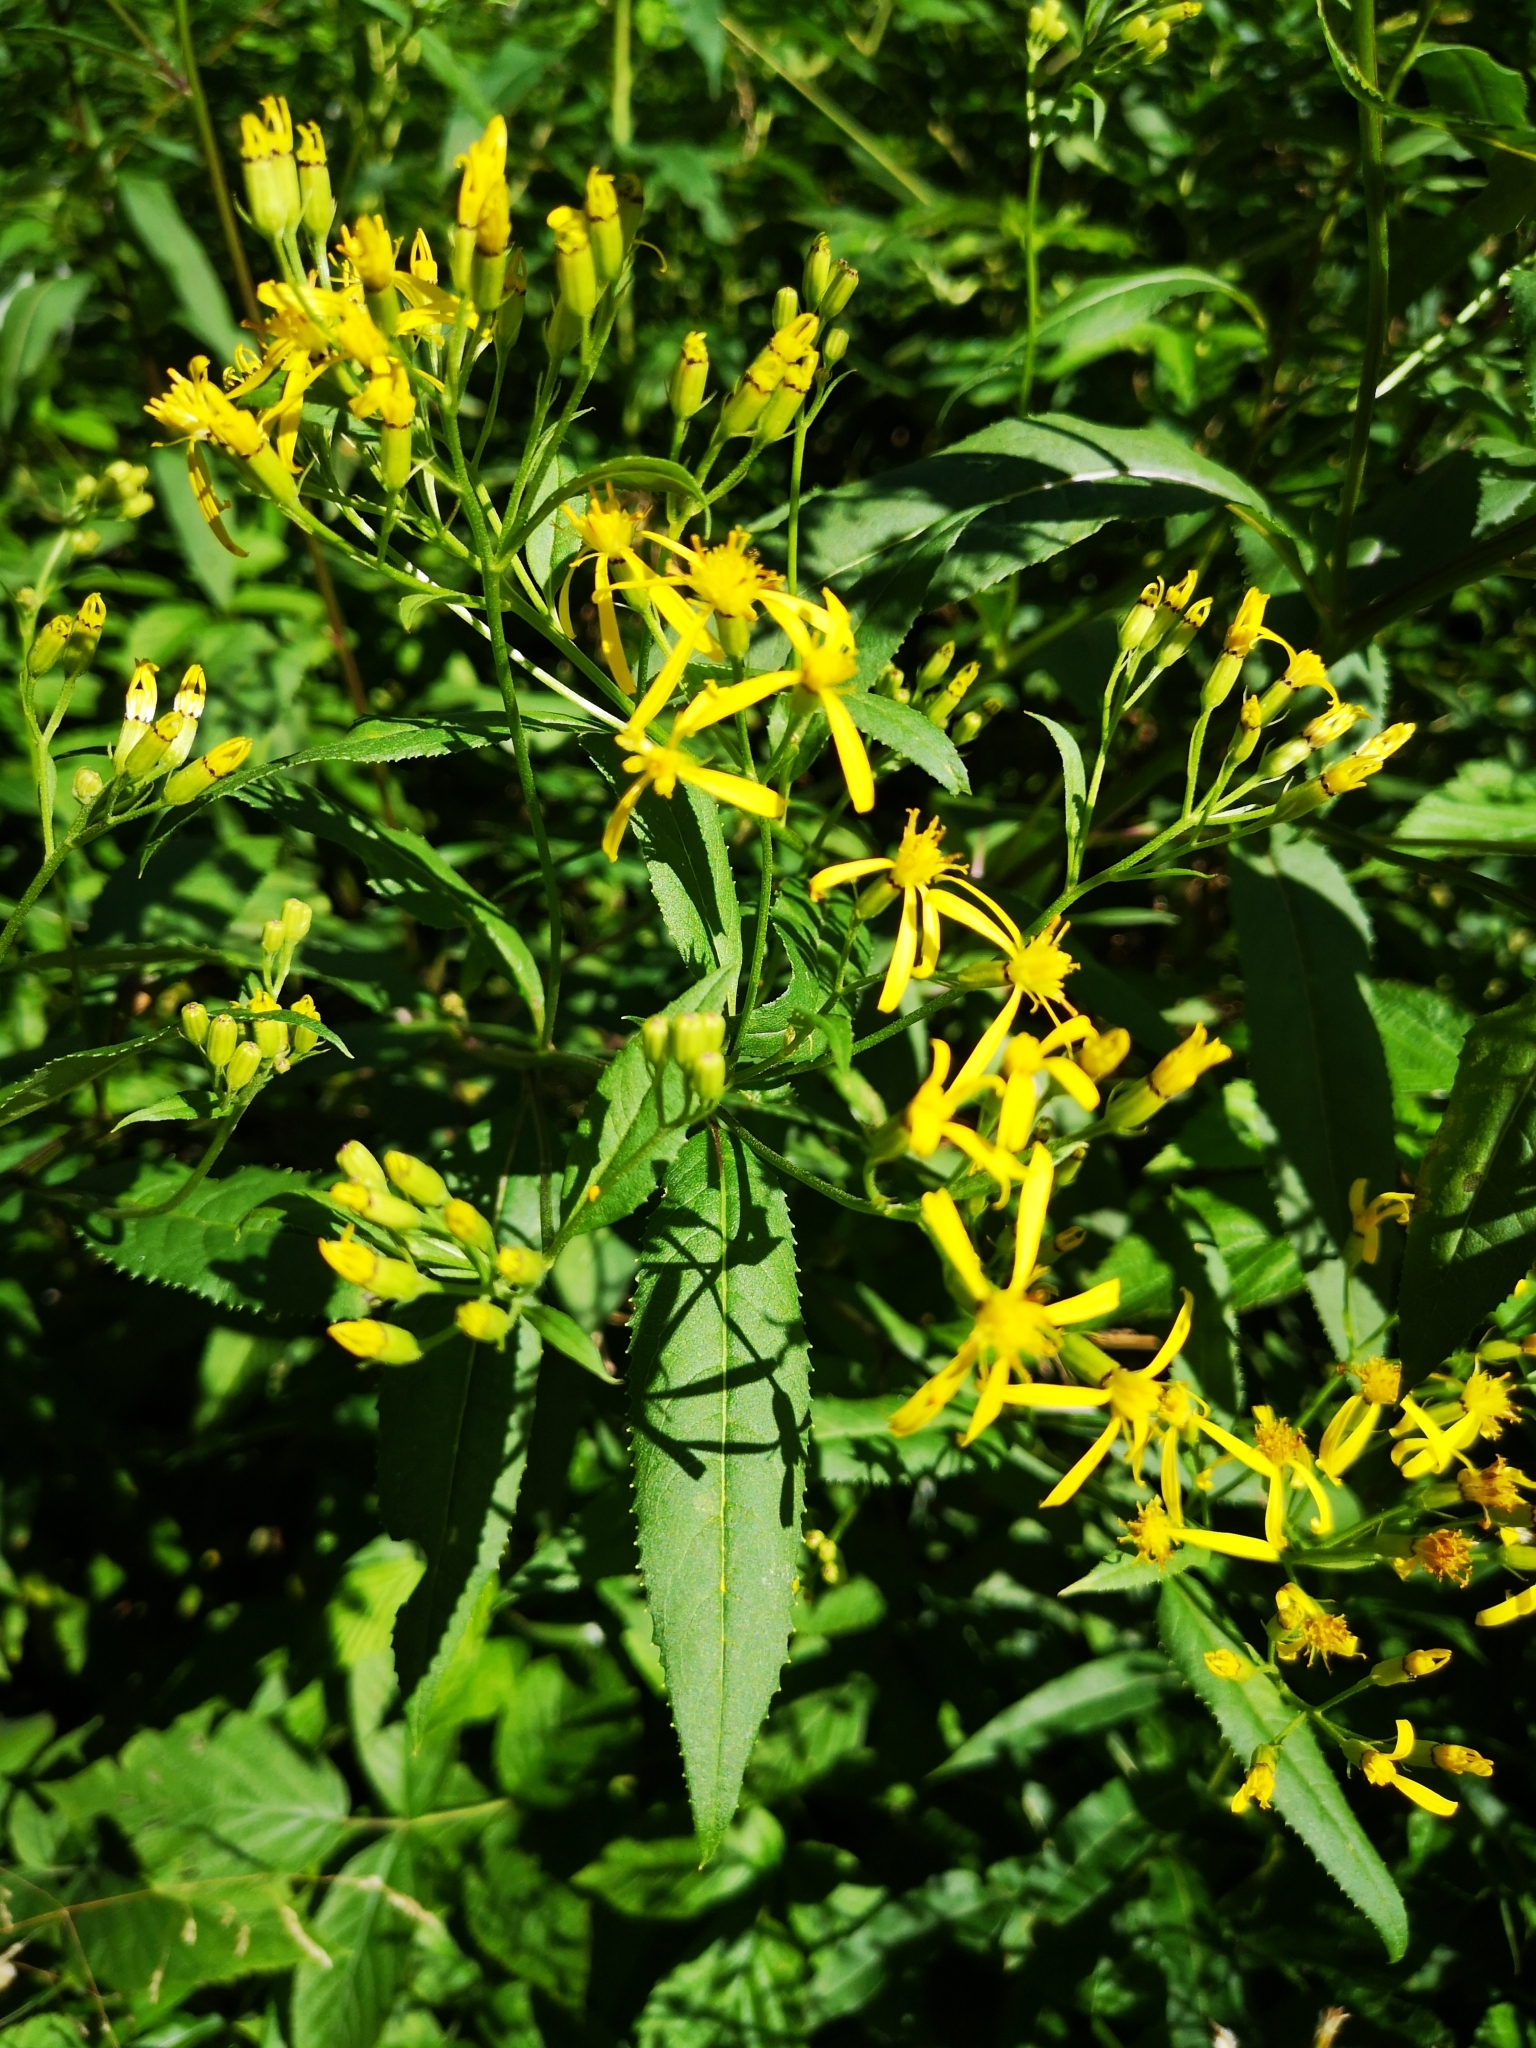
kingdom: Plantae
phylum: Tracheophyta
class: Magnoliopsida
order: Asterales
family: Asteraceae
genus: Senecio
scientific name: Senecio ovatus
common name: Wood ragwort
